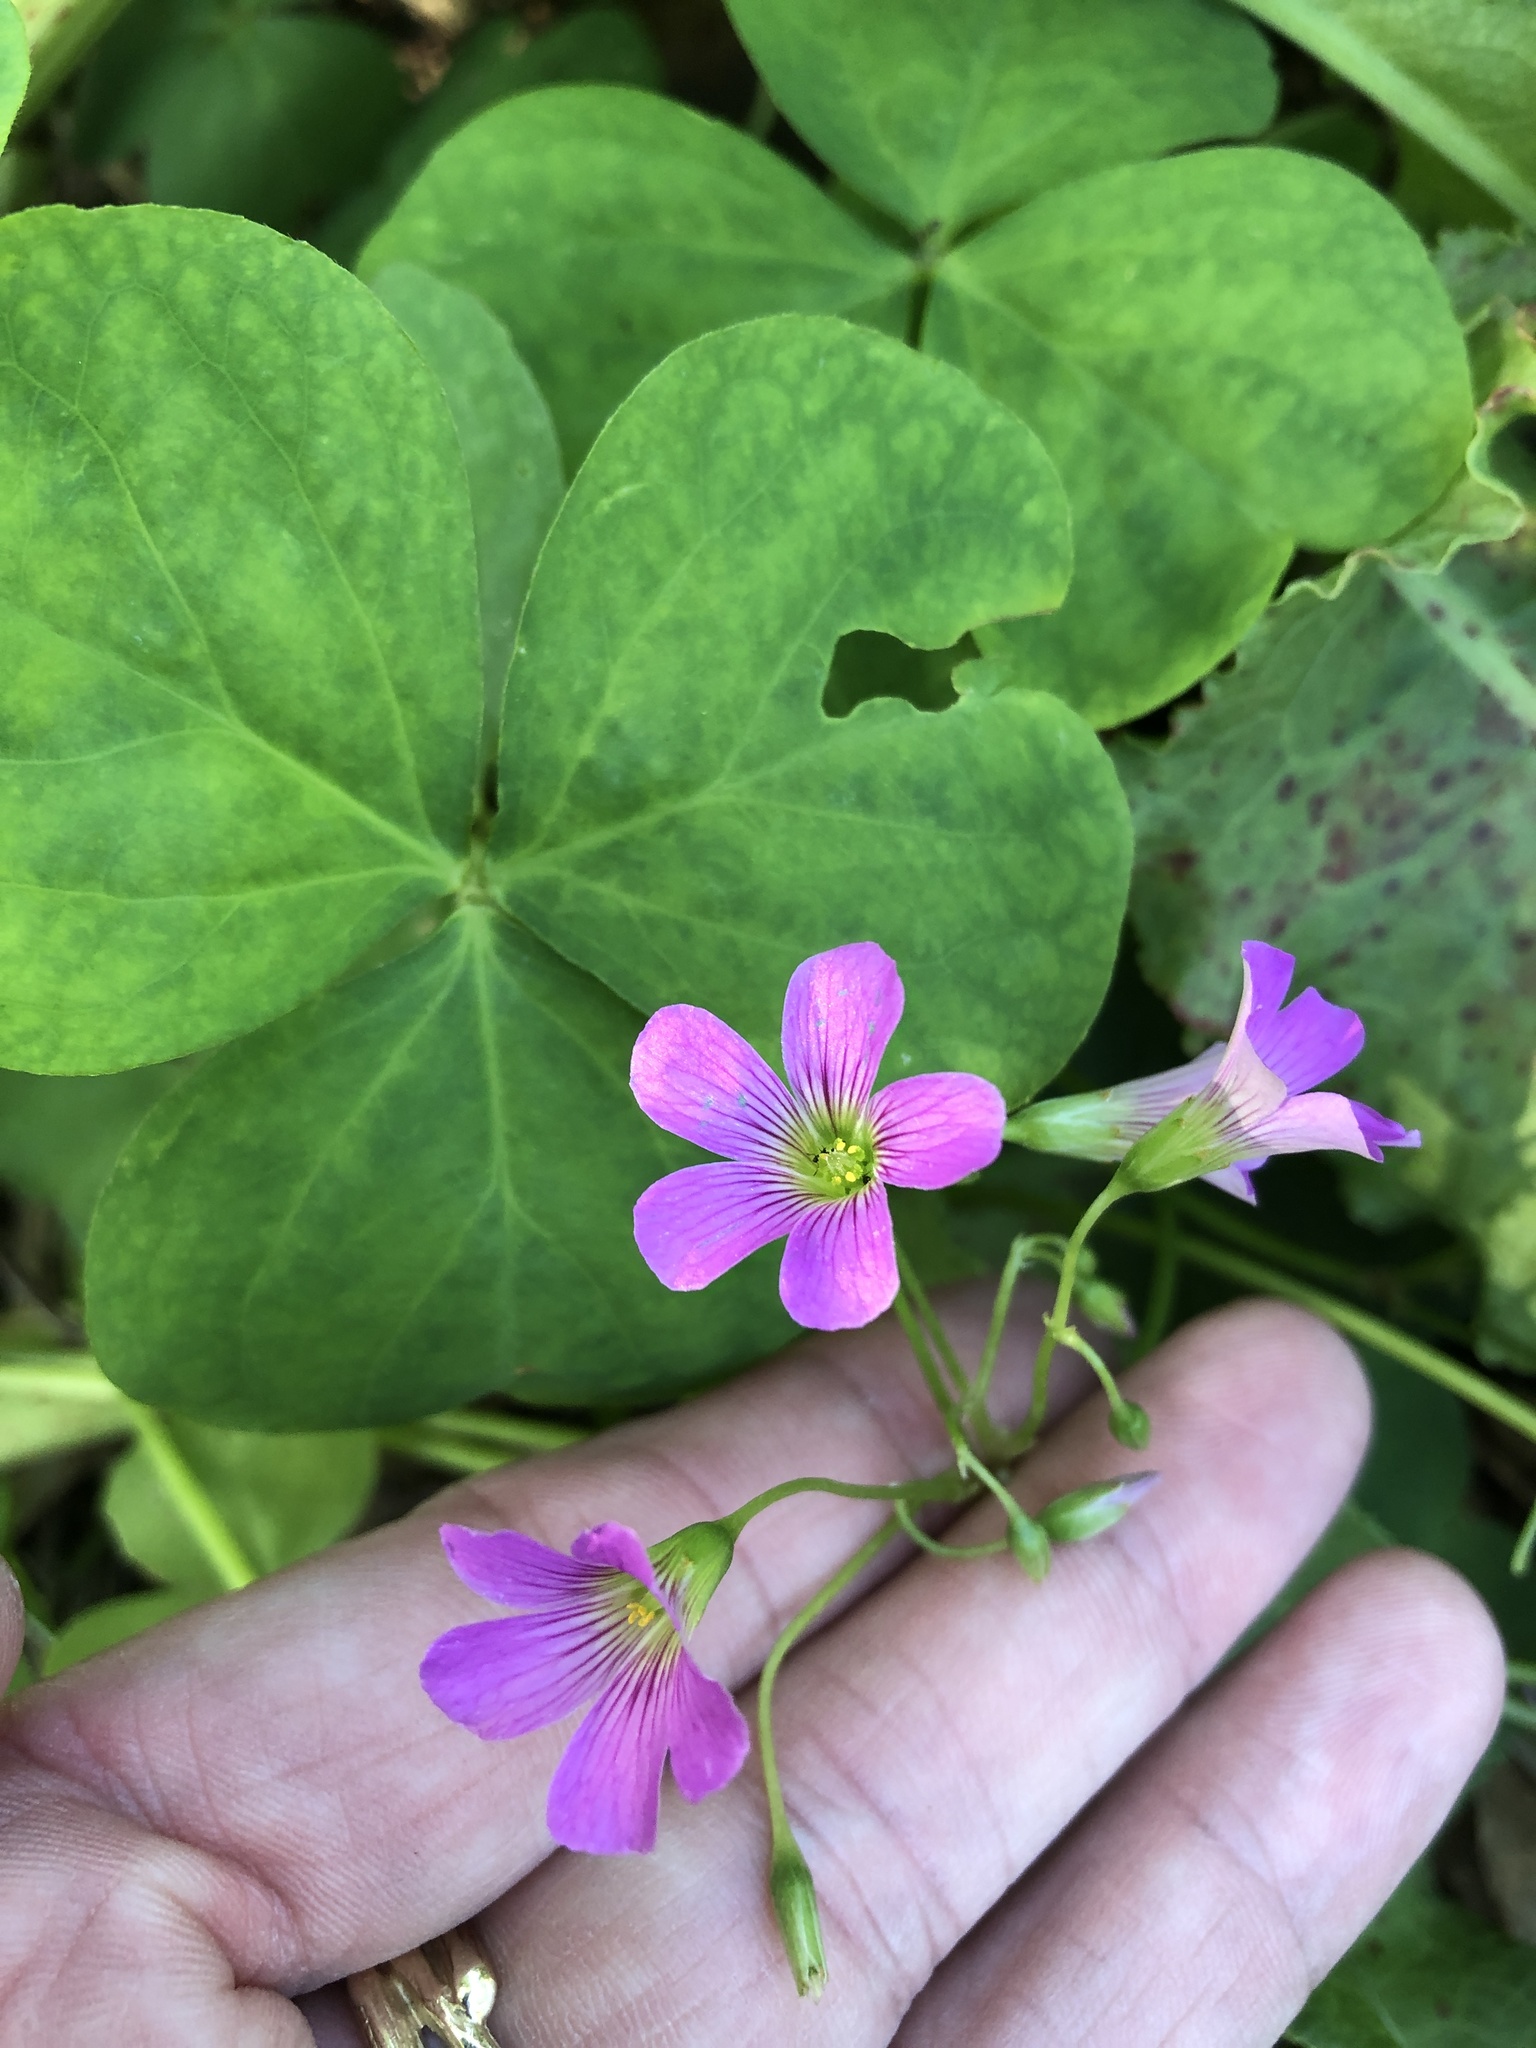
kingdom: Plantae
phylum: Tracheophyta
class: Magnoliopsida
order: Oxalidales
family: Oxalidaceae
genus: Oxalis
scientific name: Oxalis debilis
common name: Large-flowered pink-sorrel
